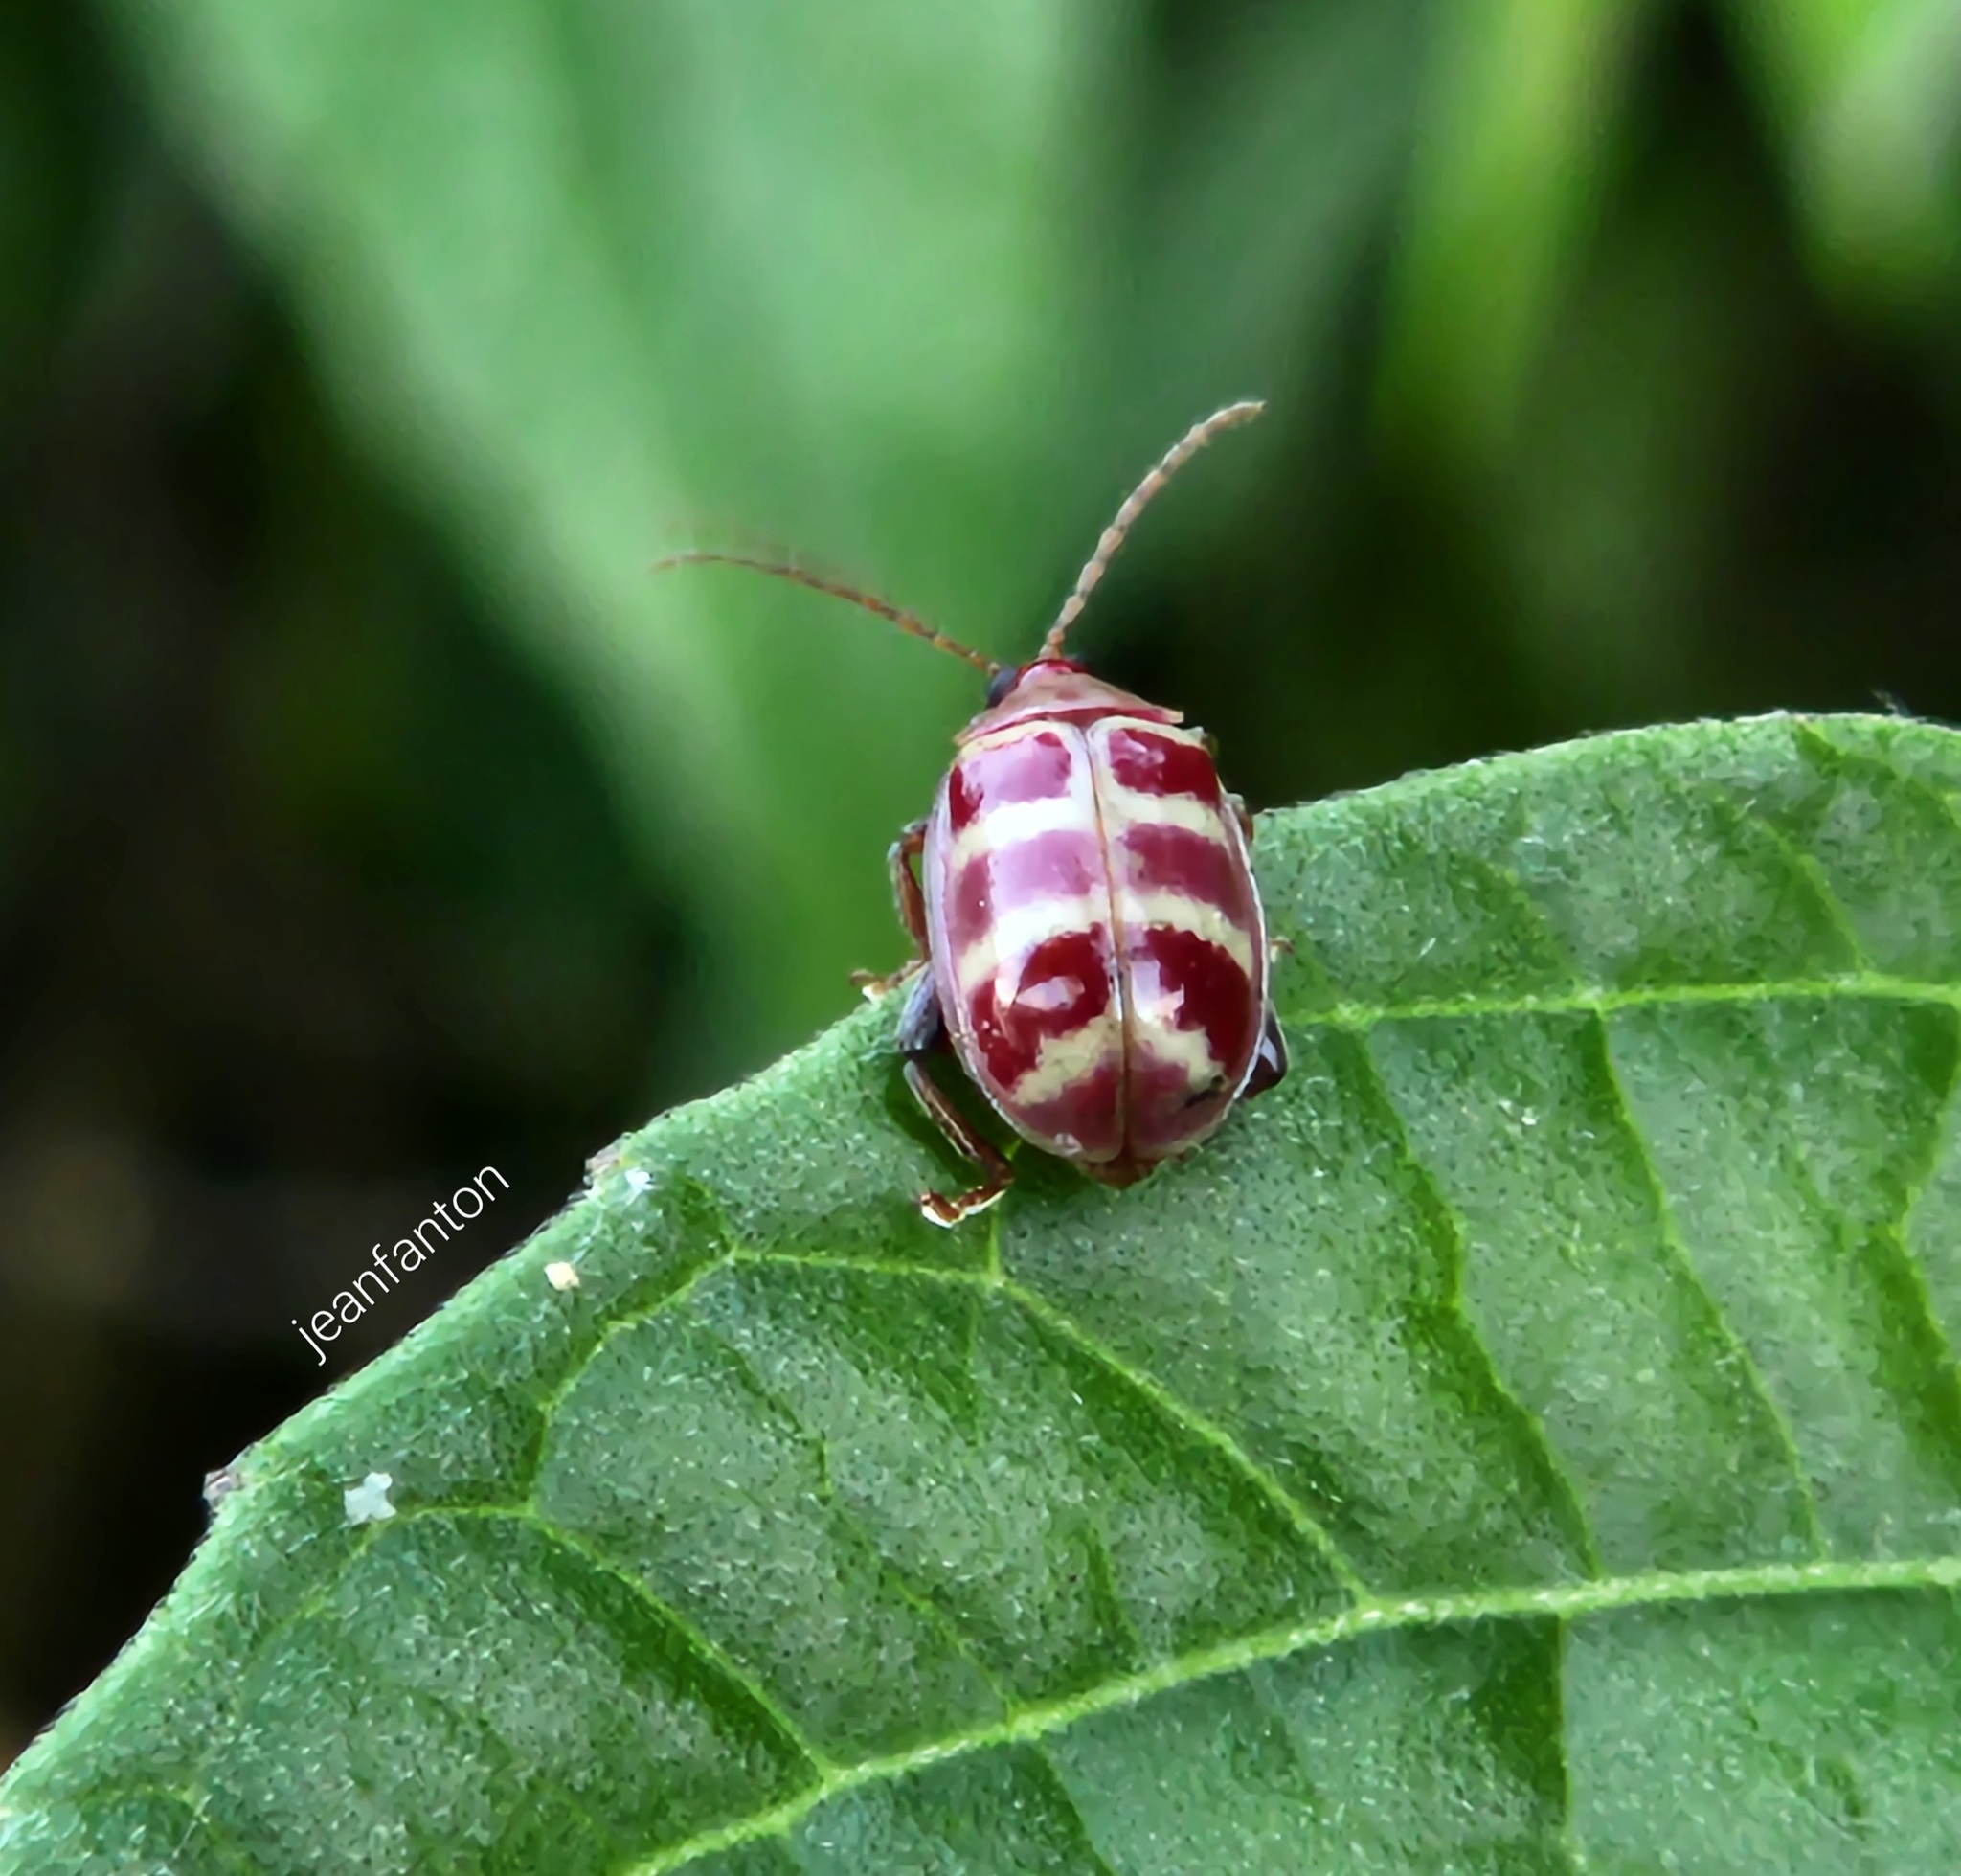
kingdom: Animalia
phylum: Arthropoda
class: Insecta
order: Coleoptera
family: Chrysomelidae
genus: Asphaera
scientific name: Asphaera
